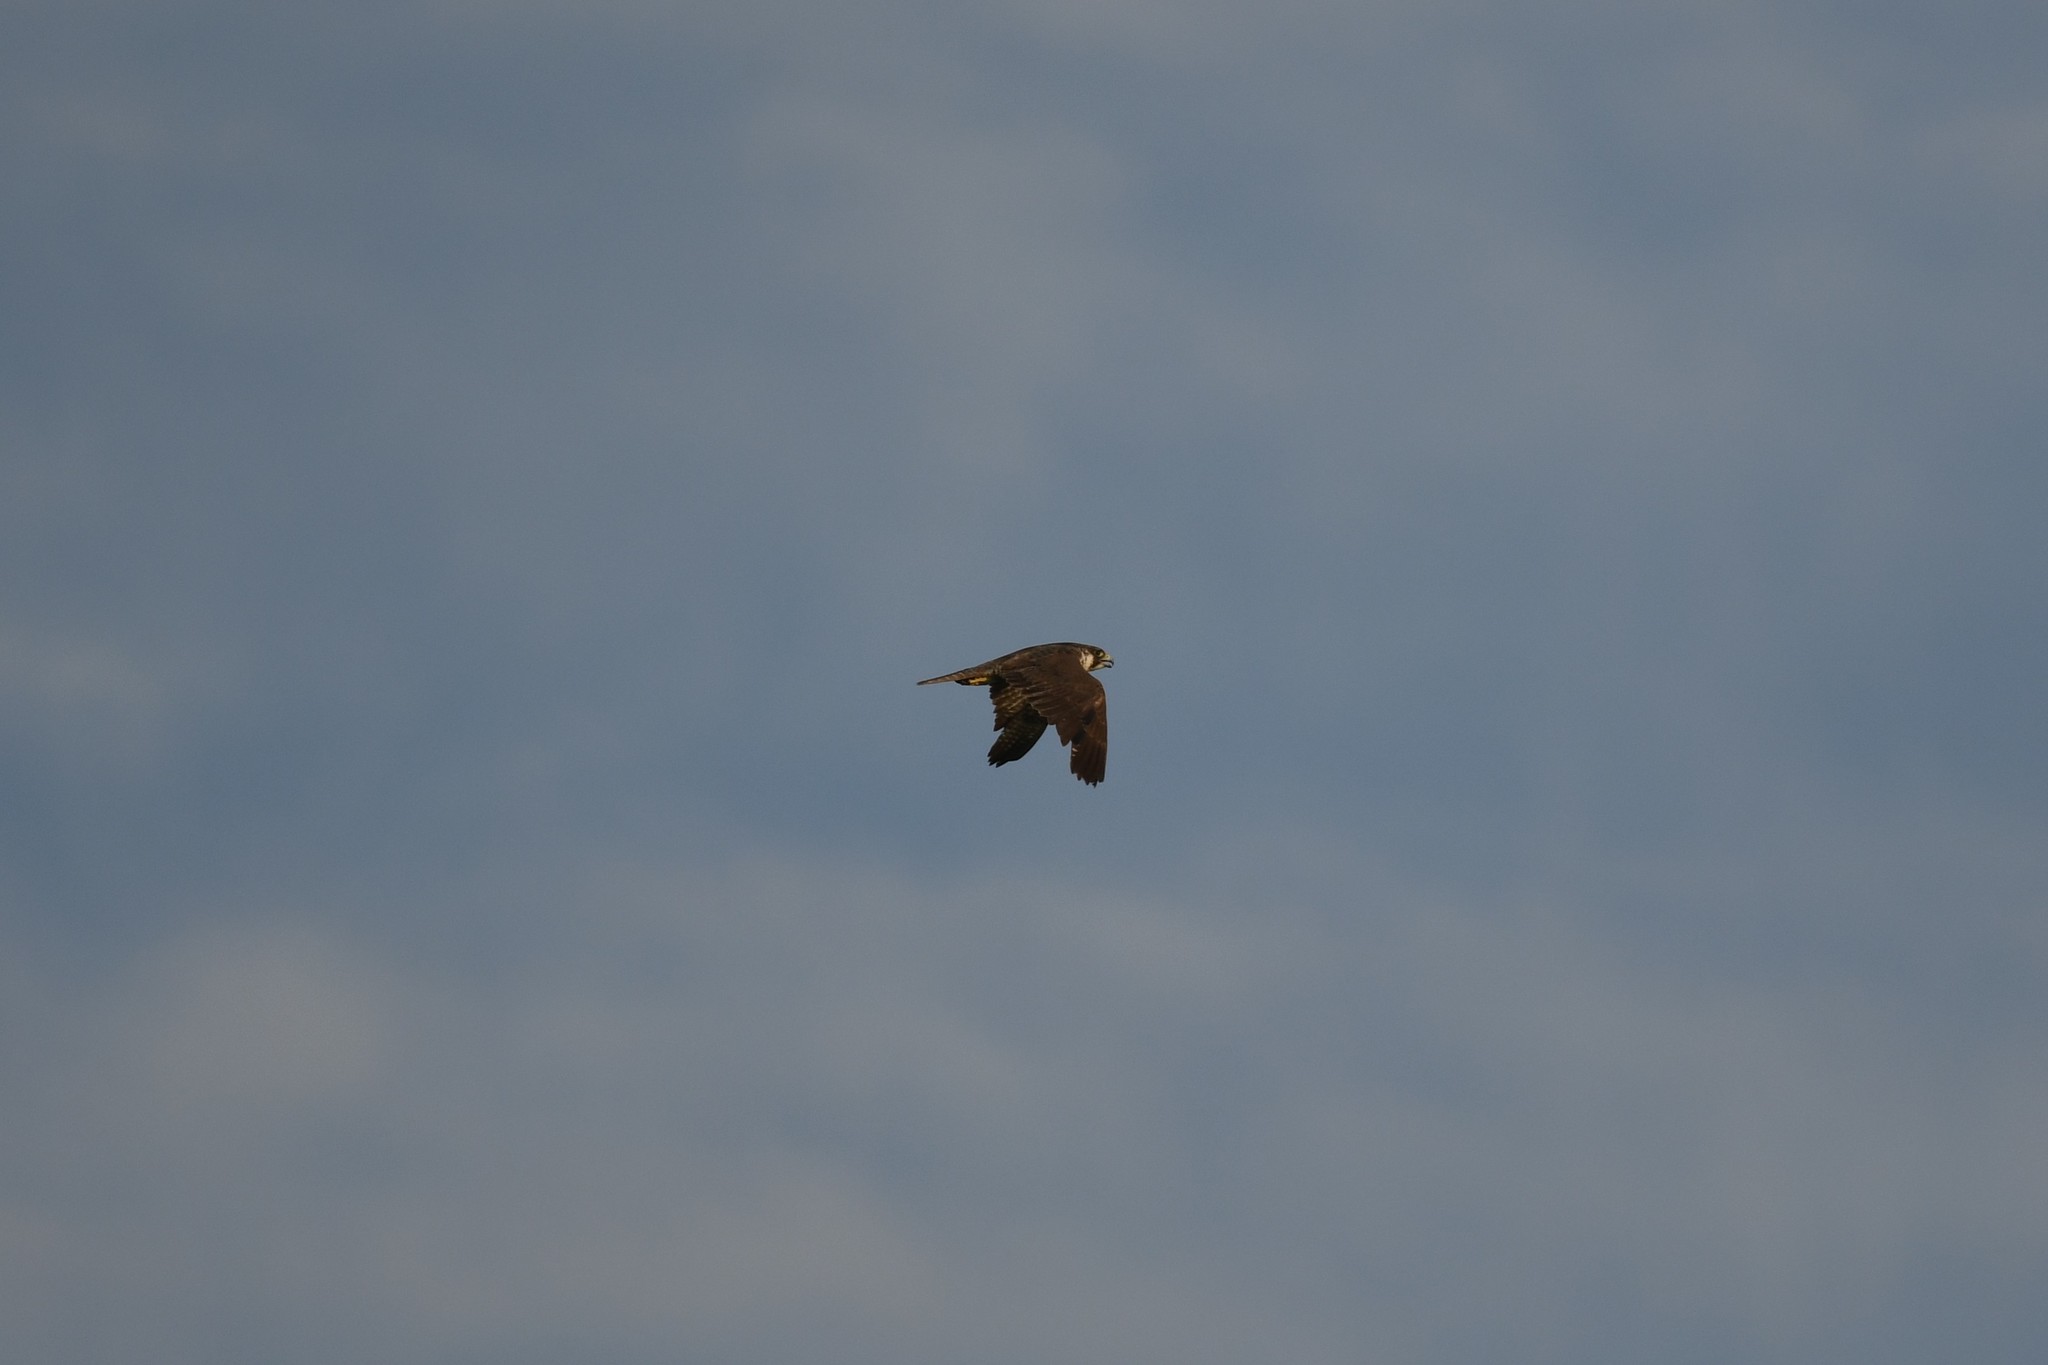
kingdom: Animalia
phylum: Chordata
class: Aves
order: Falconiformes
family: Falconidae
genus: Falco
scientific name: Falco peregrinus
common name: Peregrine falcon
